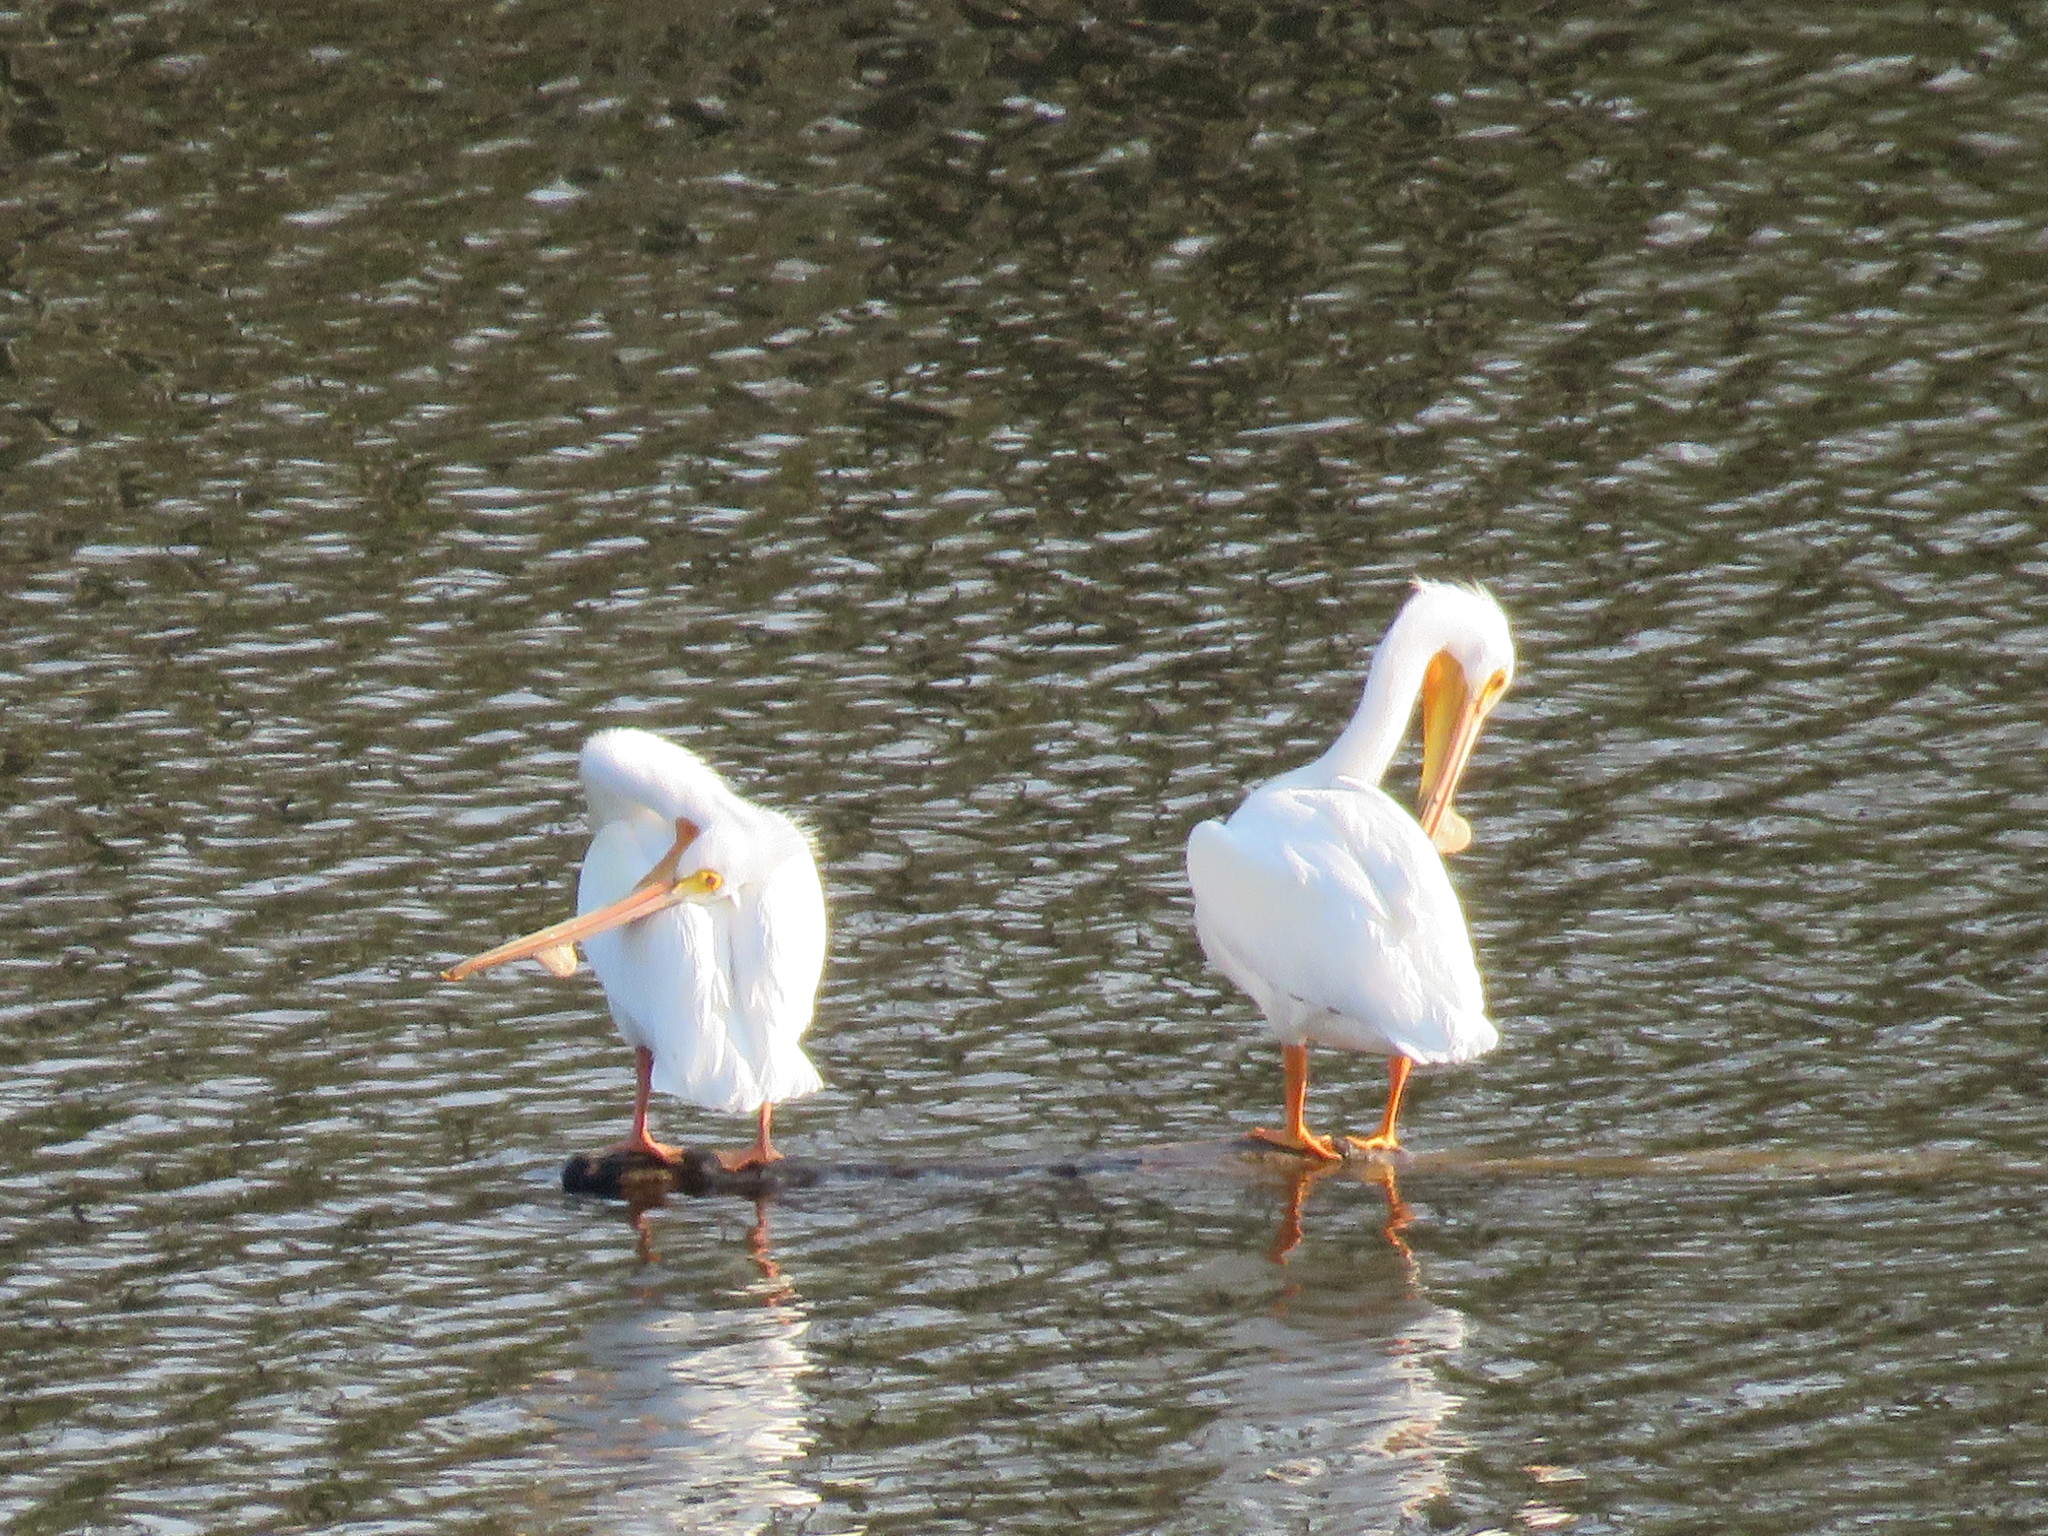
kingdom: Animalia
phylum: Chordata
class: Aves
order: Pelecaniformes
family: Pelecanidae
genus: Pelecanus
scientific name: Pelecanus erythrorhynchos
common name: American white pelican
